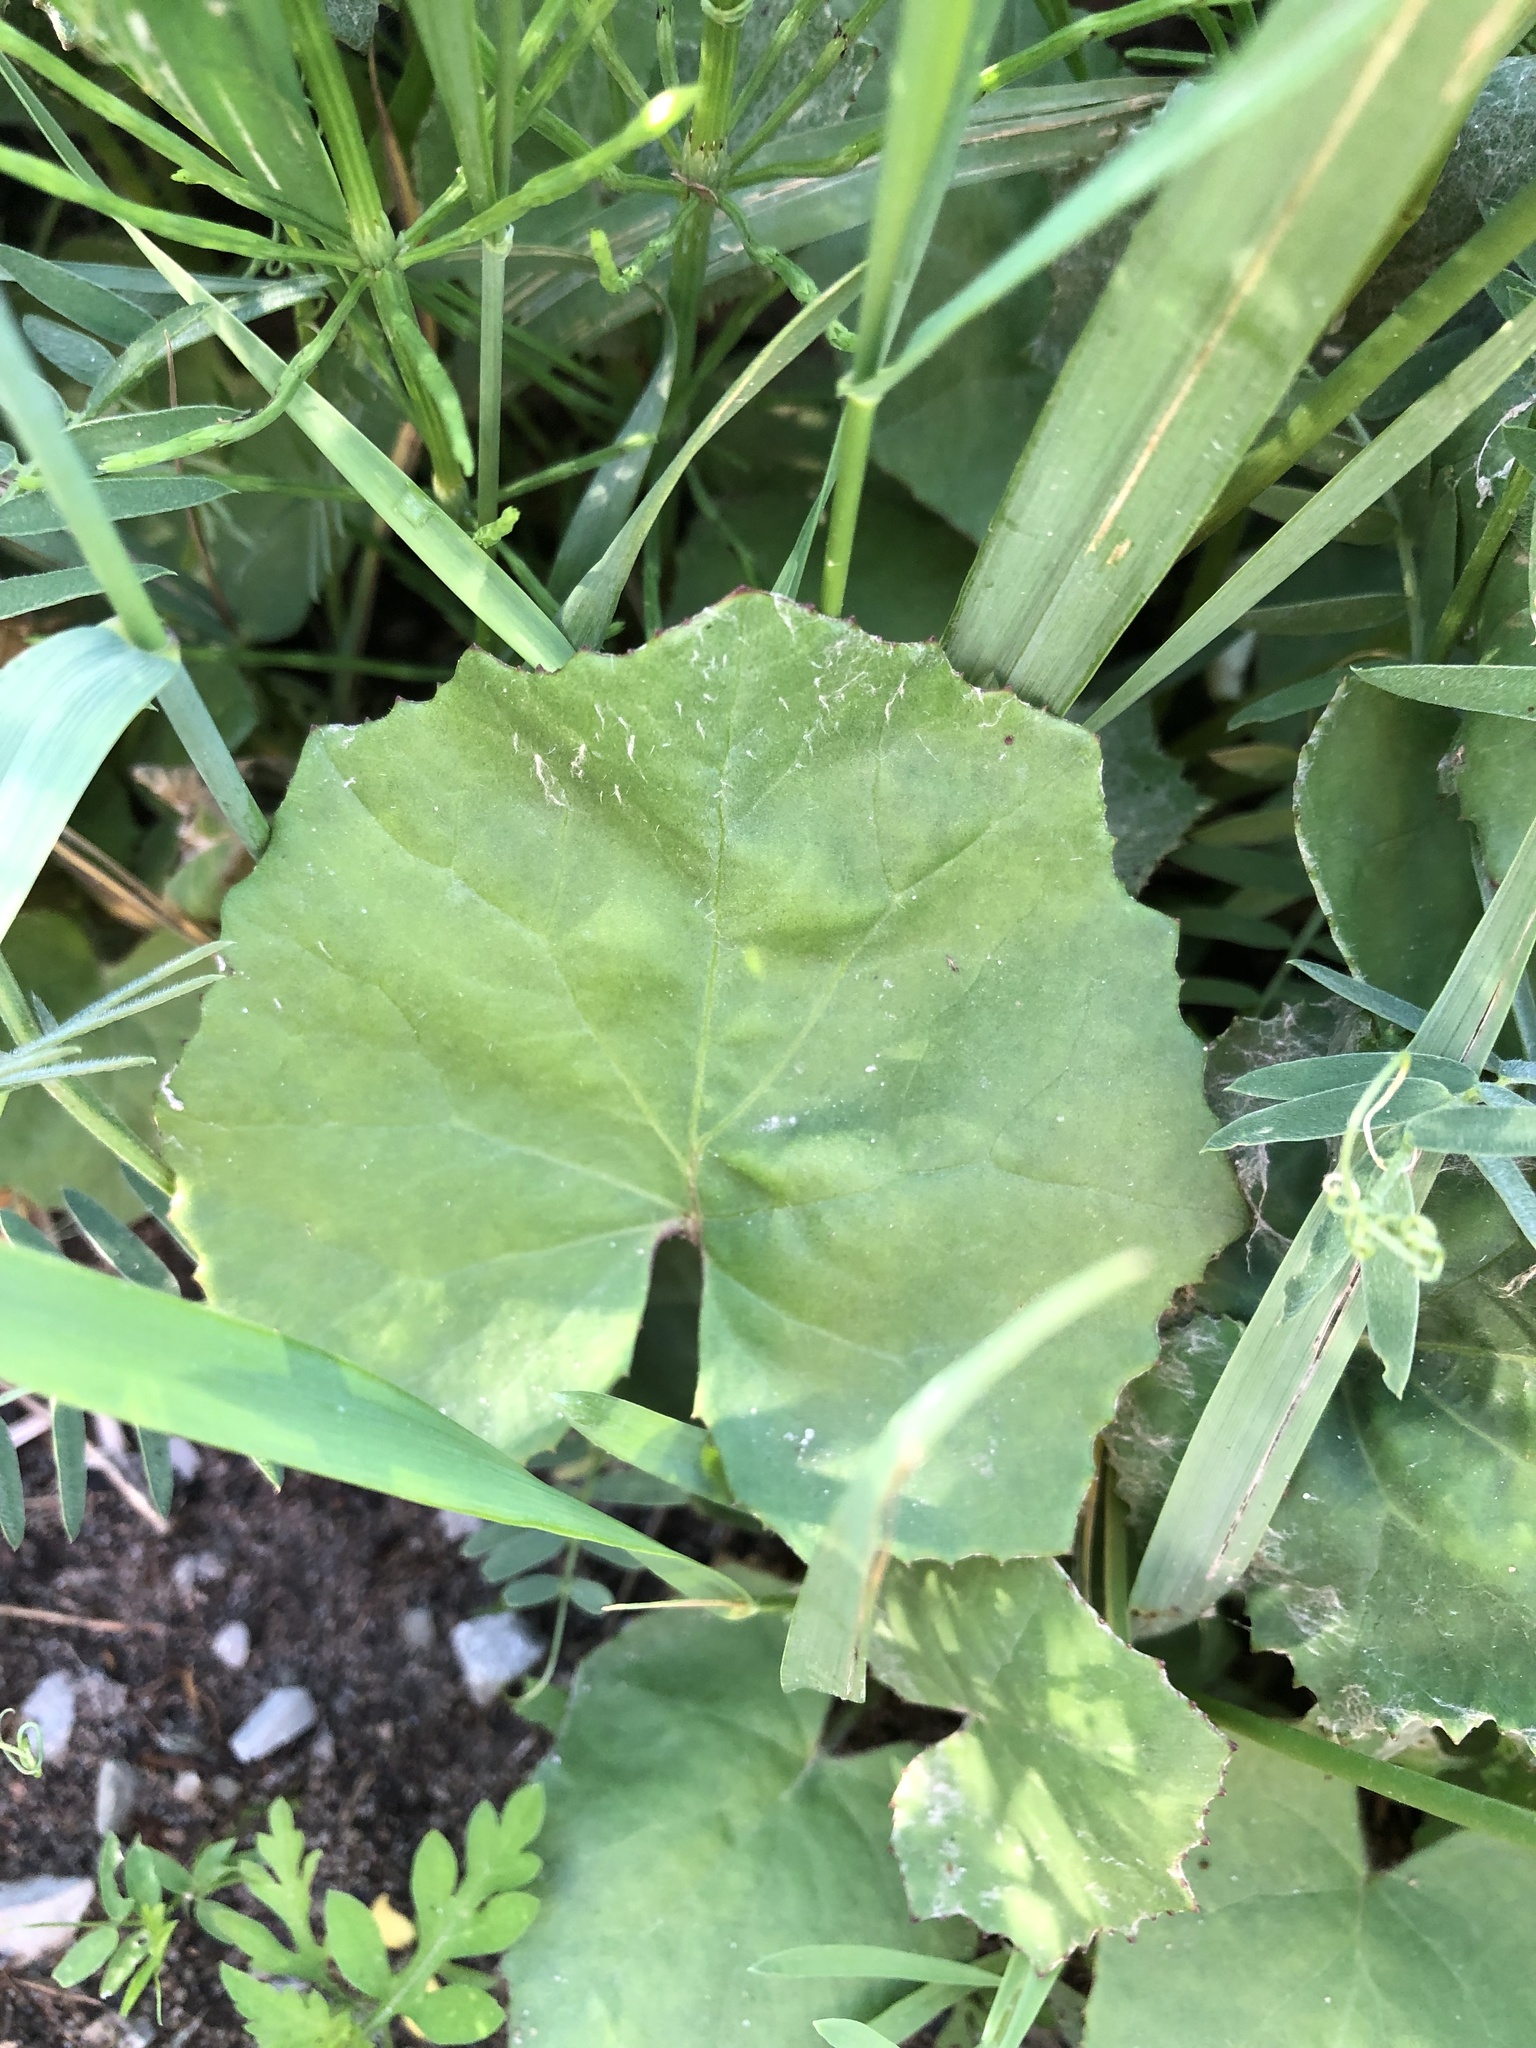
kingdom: Plantae
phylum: Tracheophyta
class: Magnoliopsida
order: Asterales
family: Asteraceae
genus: Tussilago
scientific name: Tussilago farfara
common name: Coltsfoot
